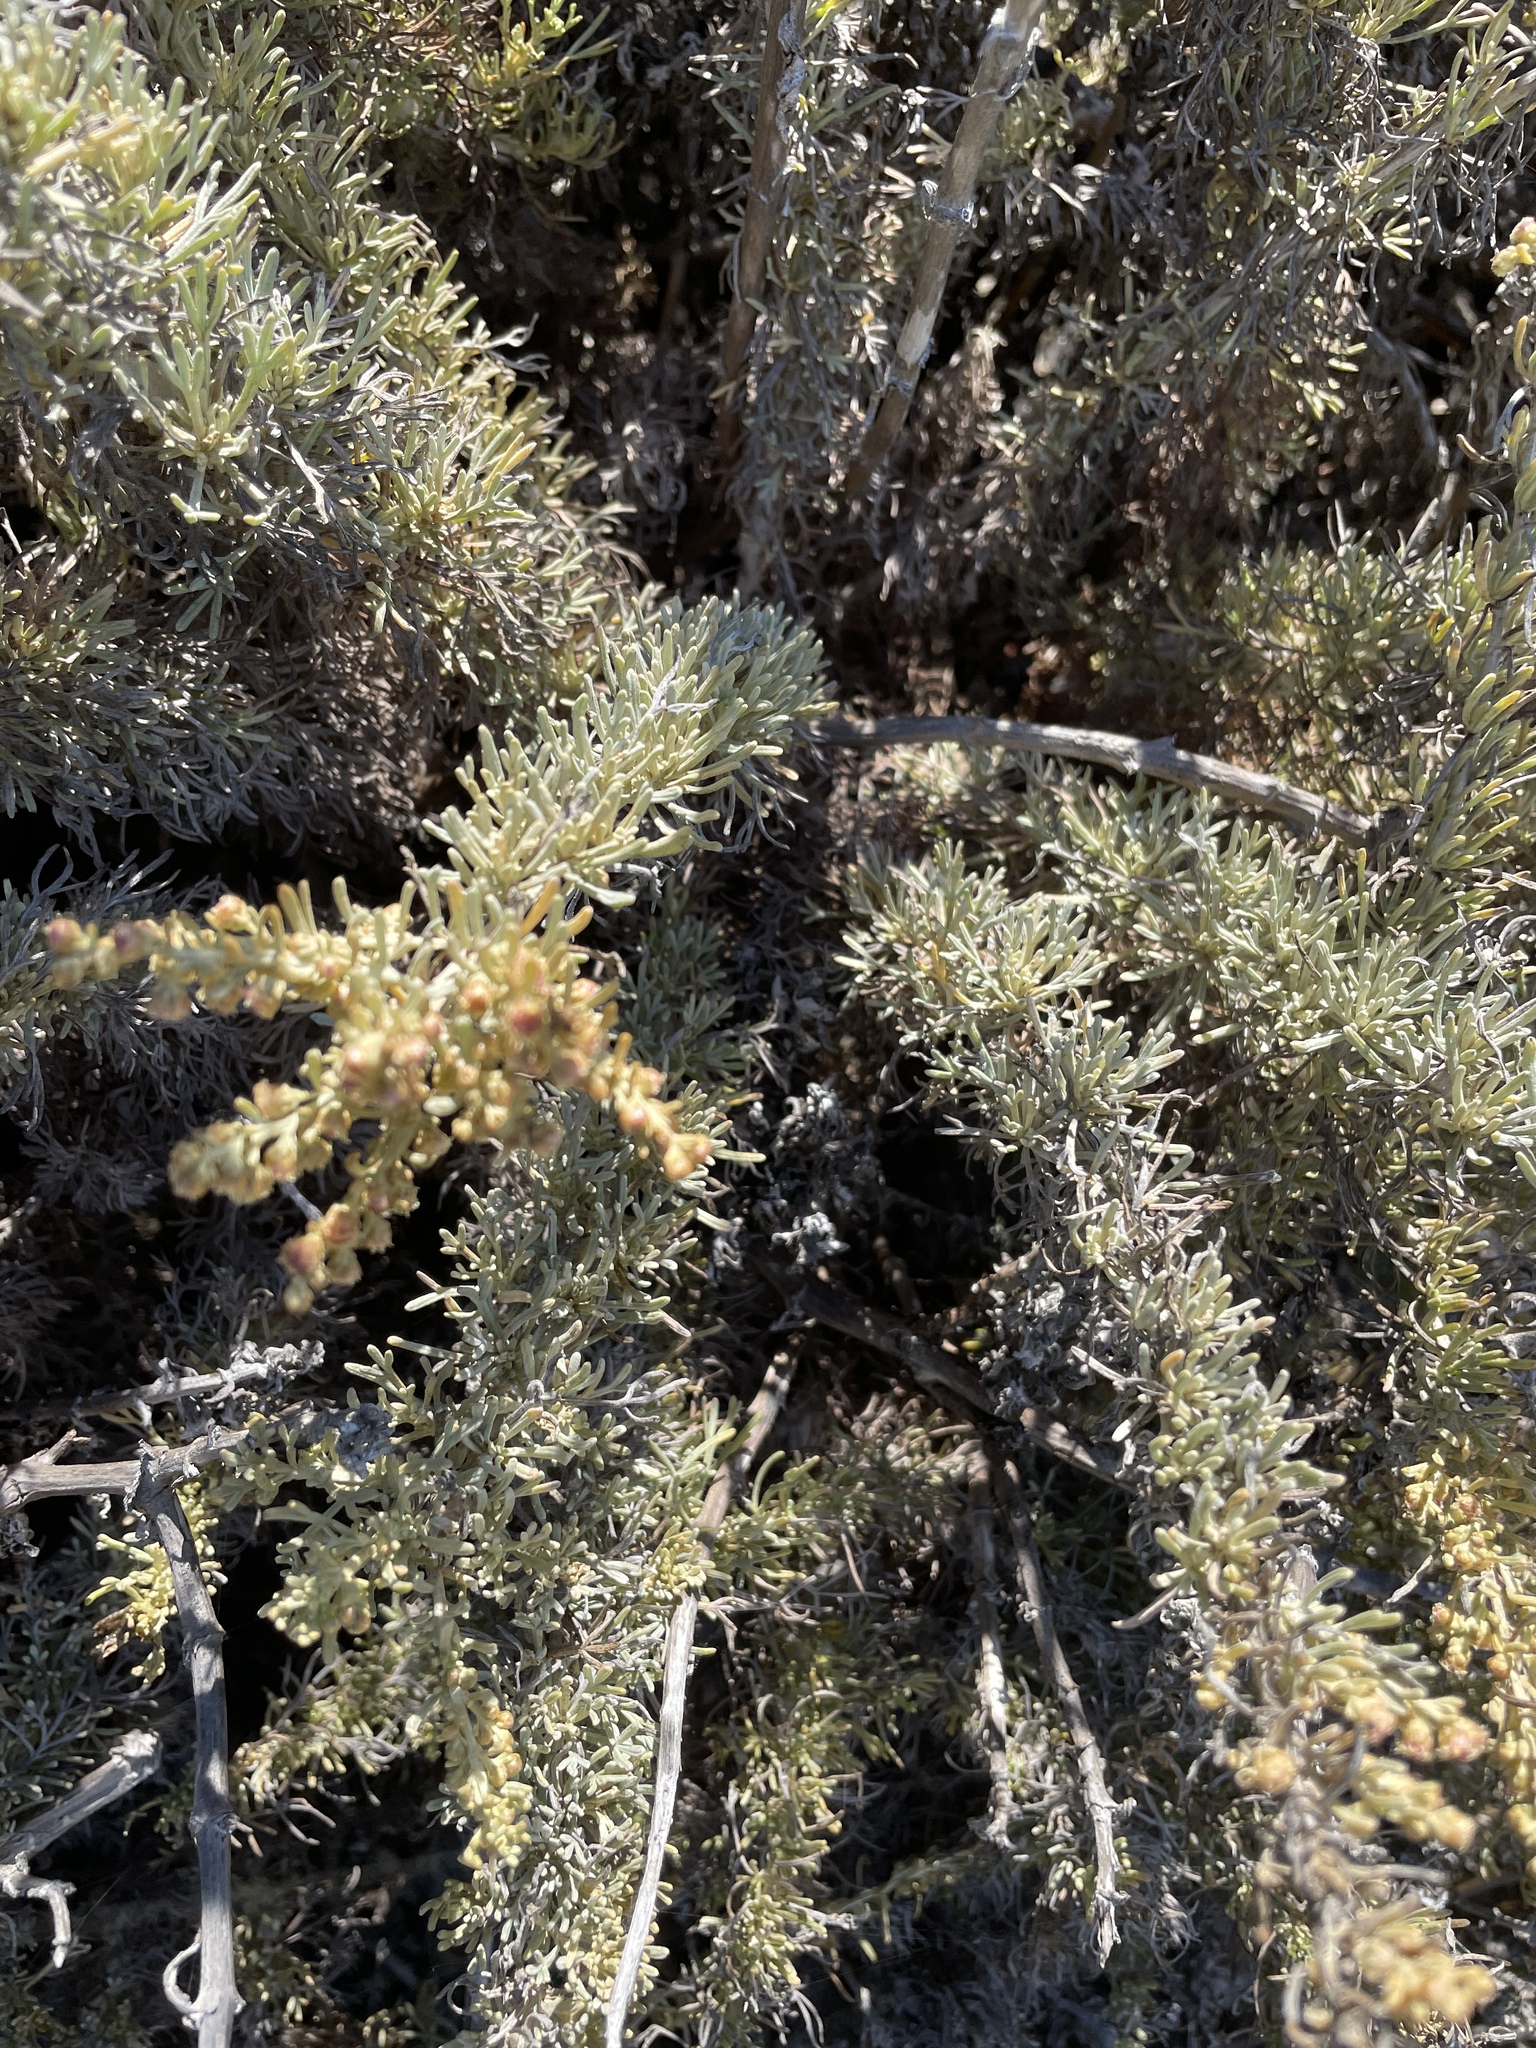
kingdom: Plantae
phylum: Tracheophyta
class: Magnoliopsida
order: Asterales
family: Asteraceae
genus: Artemisia
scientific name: Artemisia californica
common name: California sagebrush
